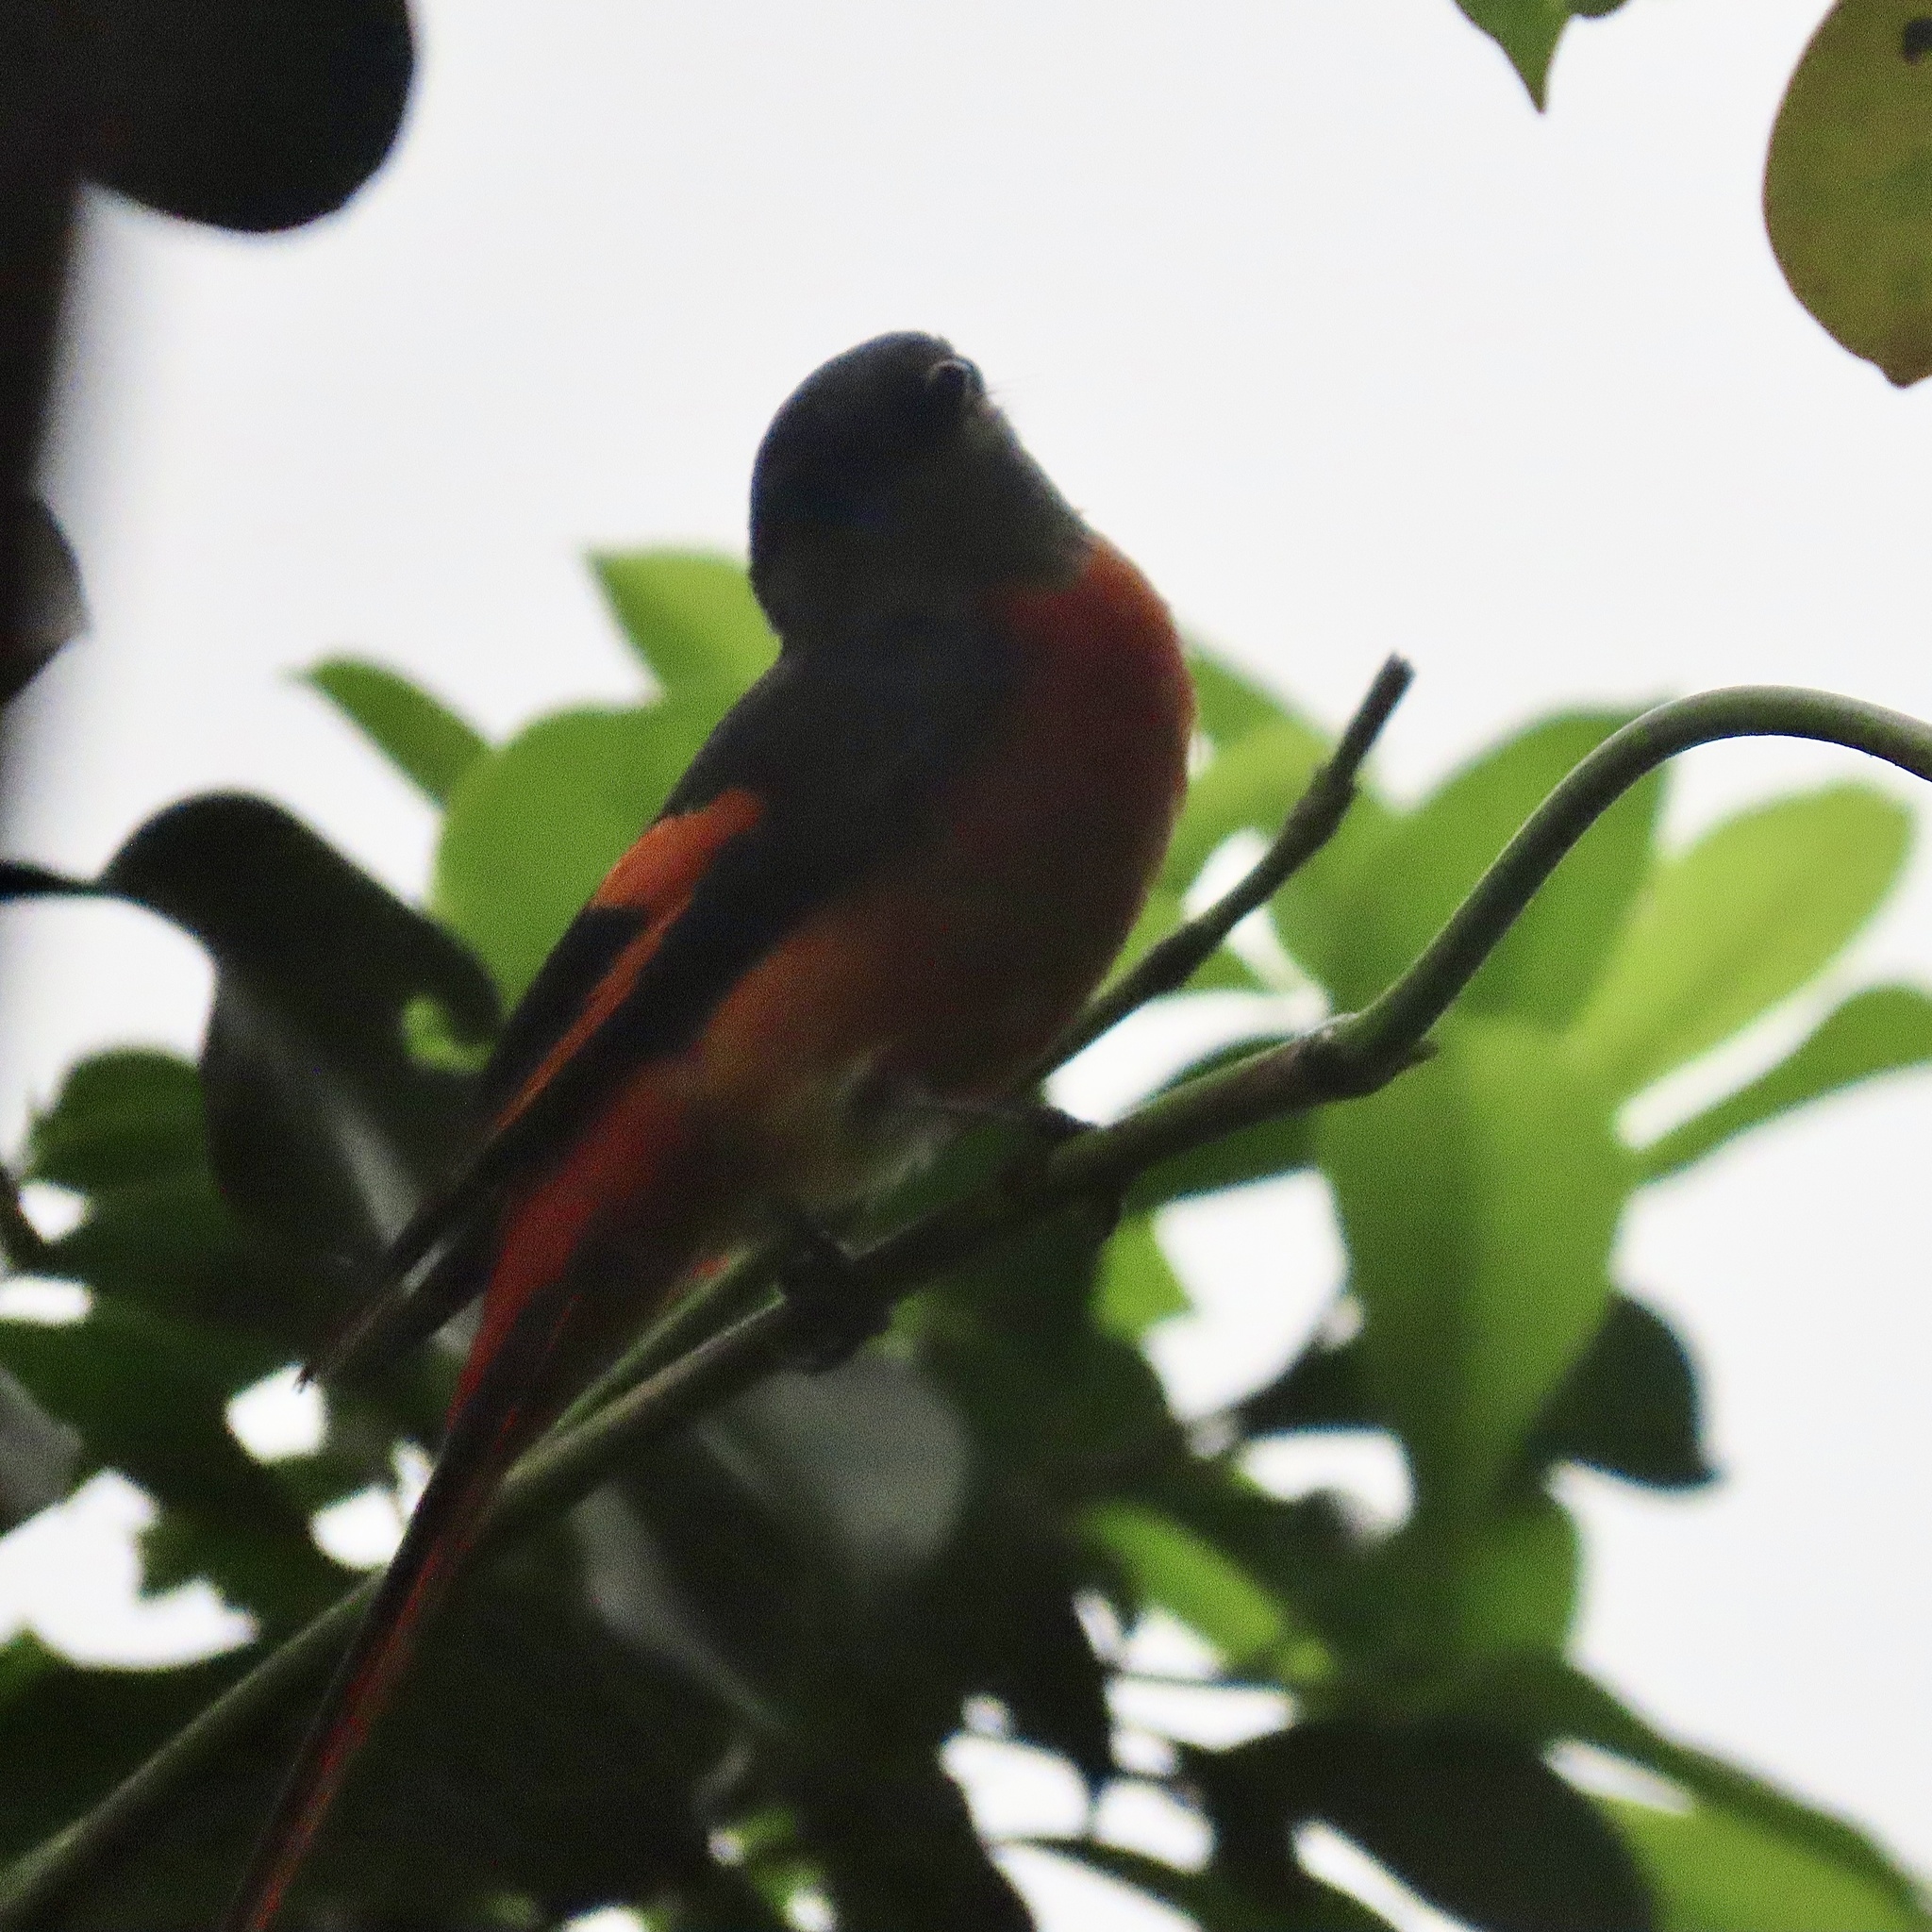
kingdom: Animalia
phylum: Chordata
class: Aves
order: Passeriformes
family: Campephagidae
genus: Pericrocotus
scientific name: Pericrocotus solaris
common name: Grey-chinned minivet
